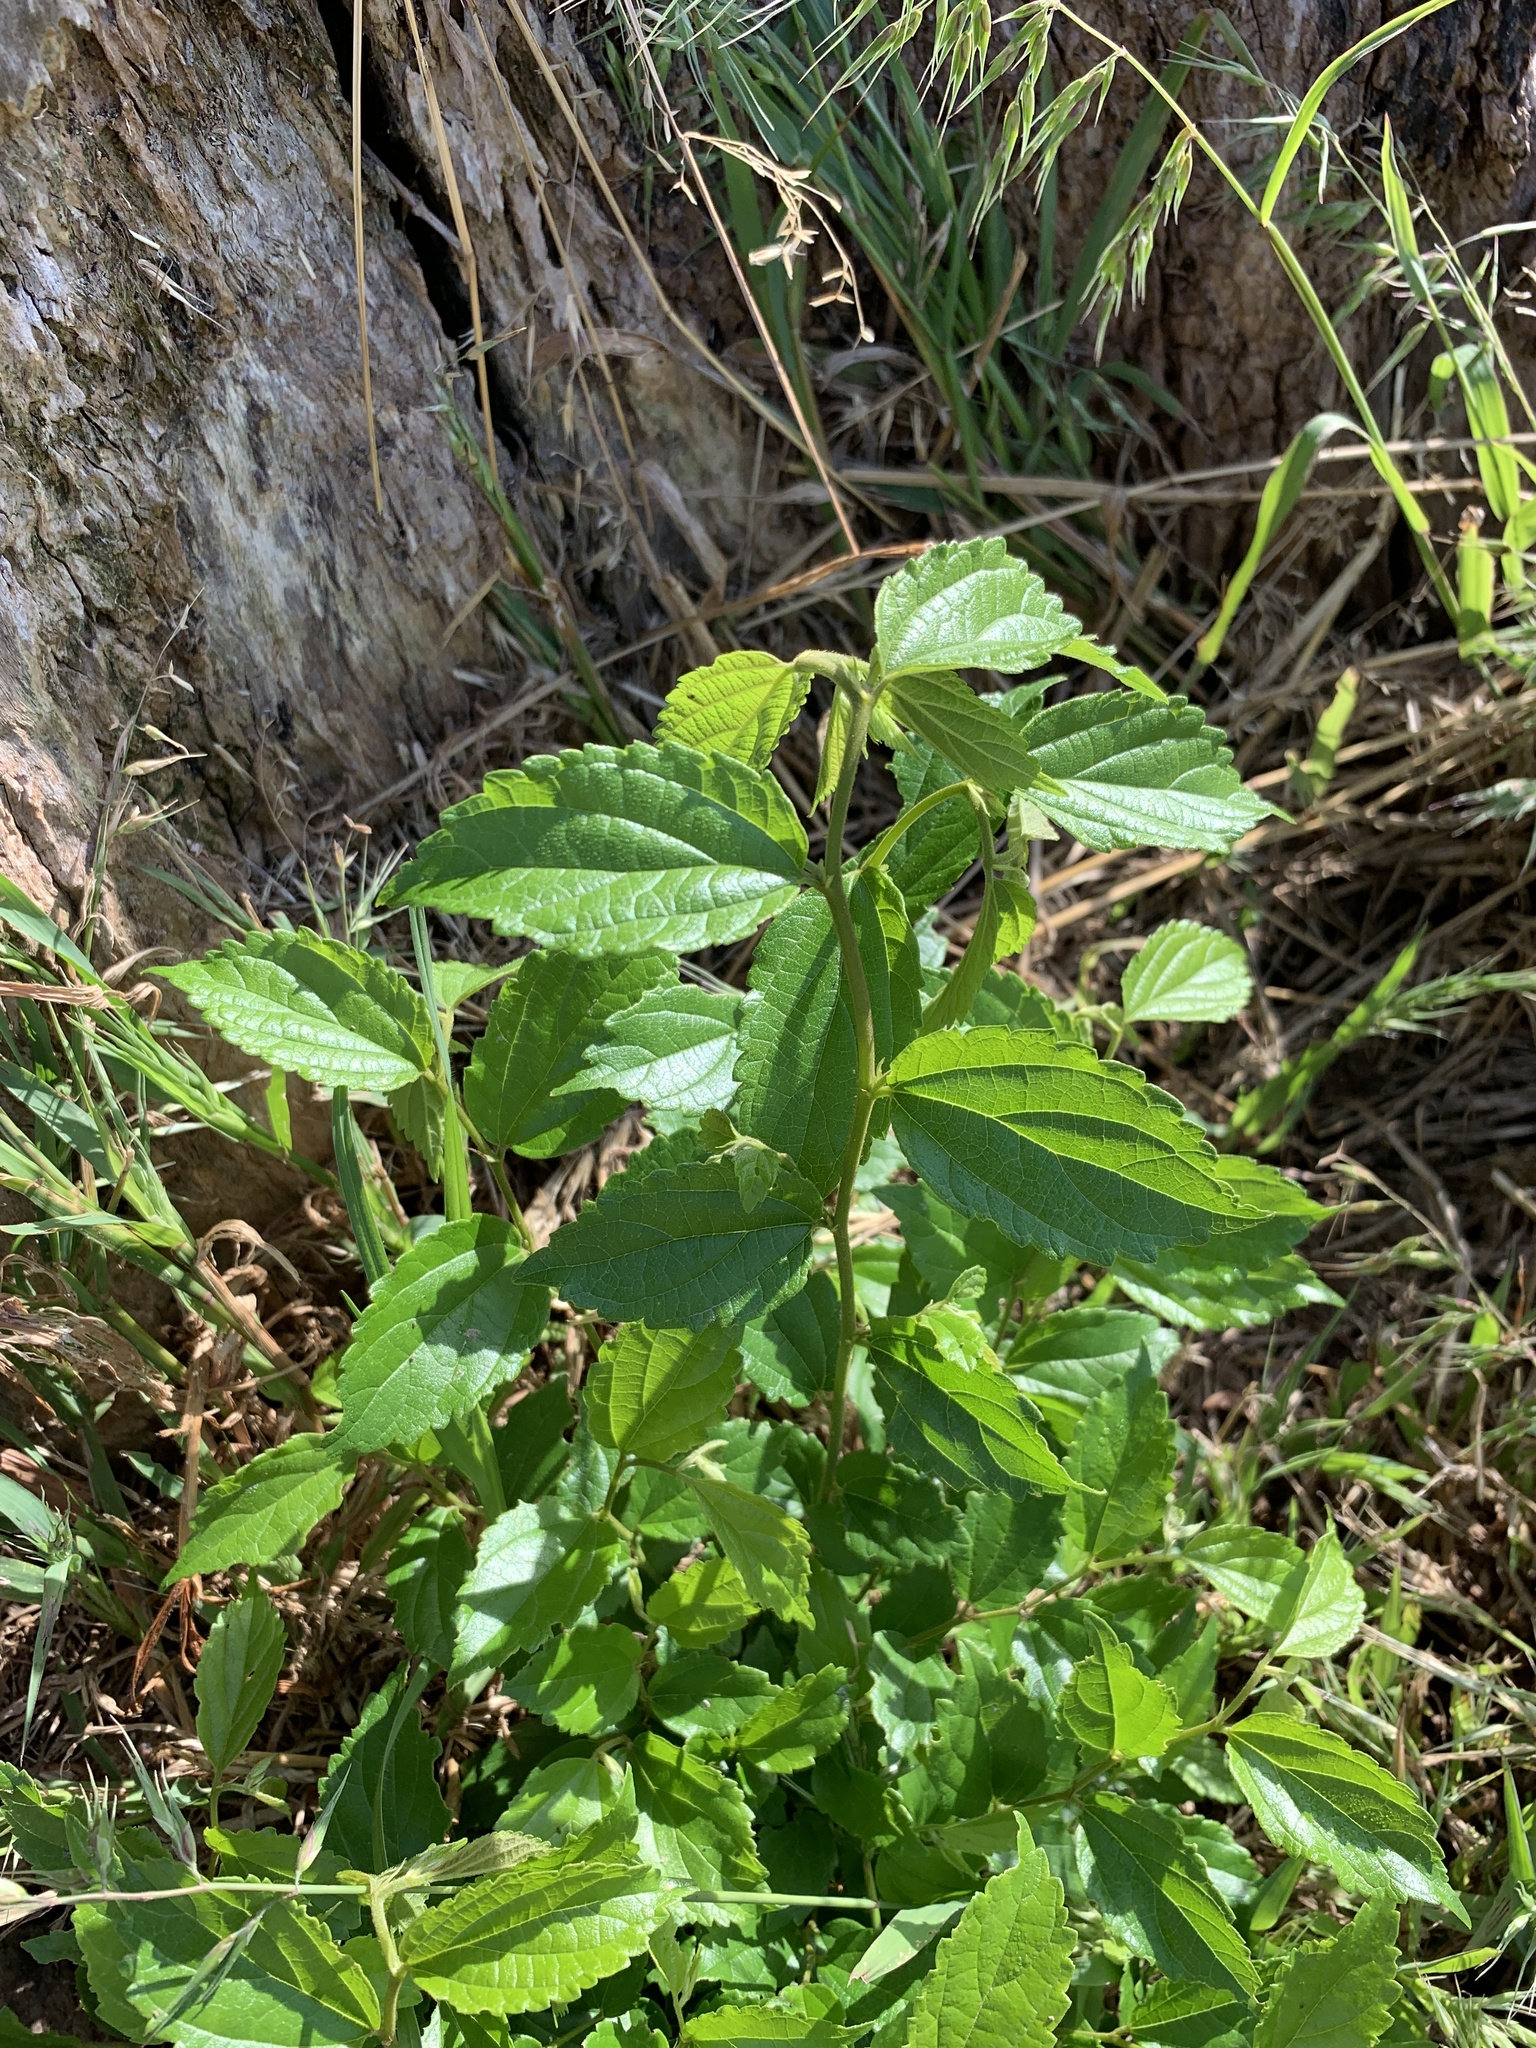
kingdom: Plantae
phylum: Tracheophyta
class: Magnoliopsida
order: Rosales
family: Cannabaceae
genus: Celtis
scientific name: Celtis africana
